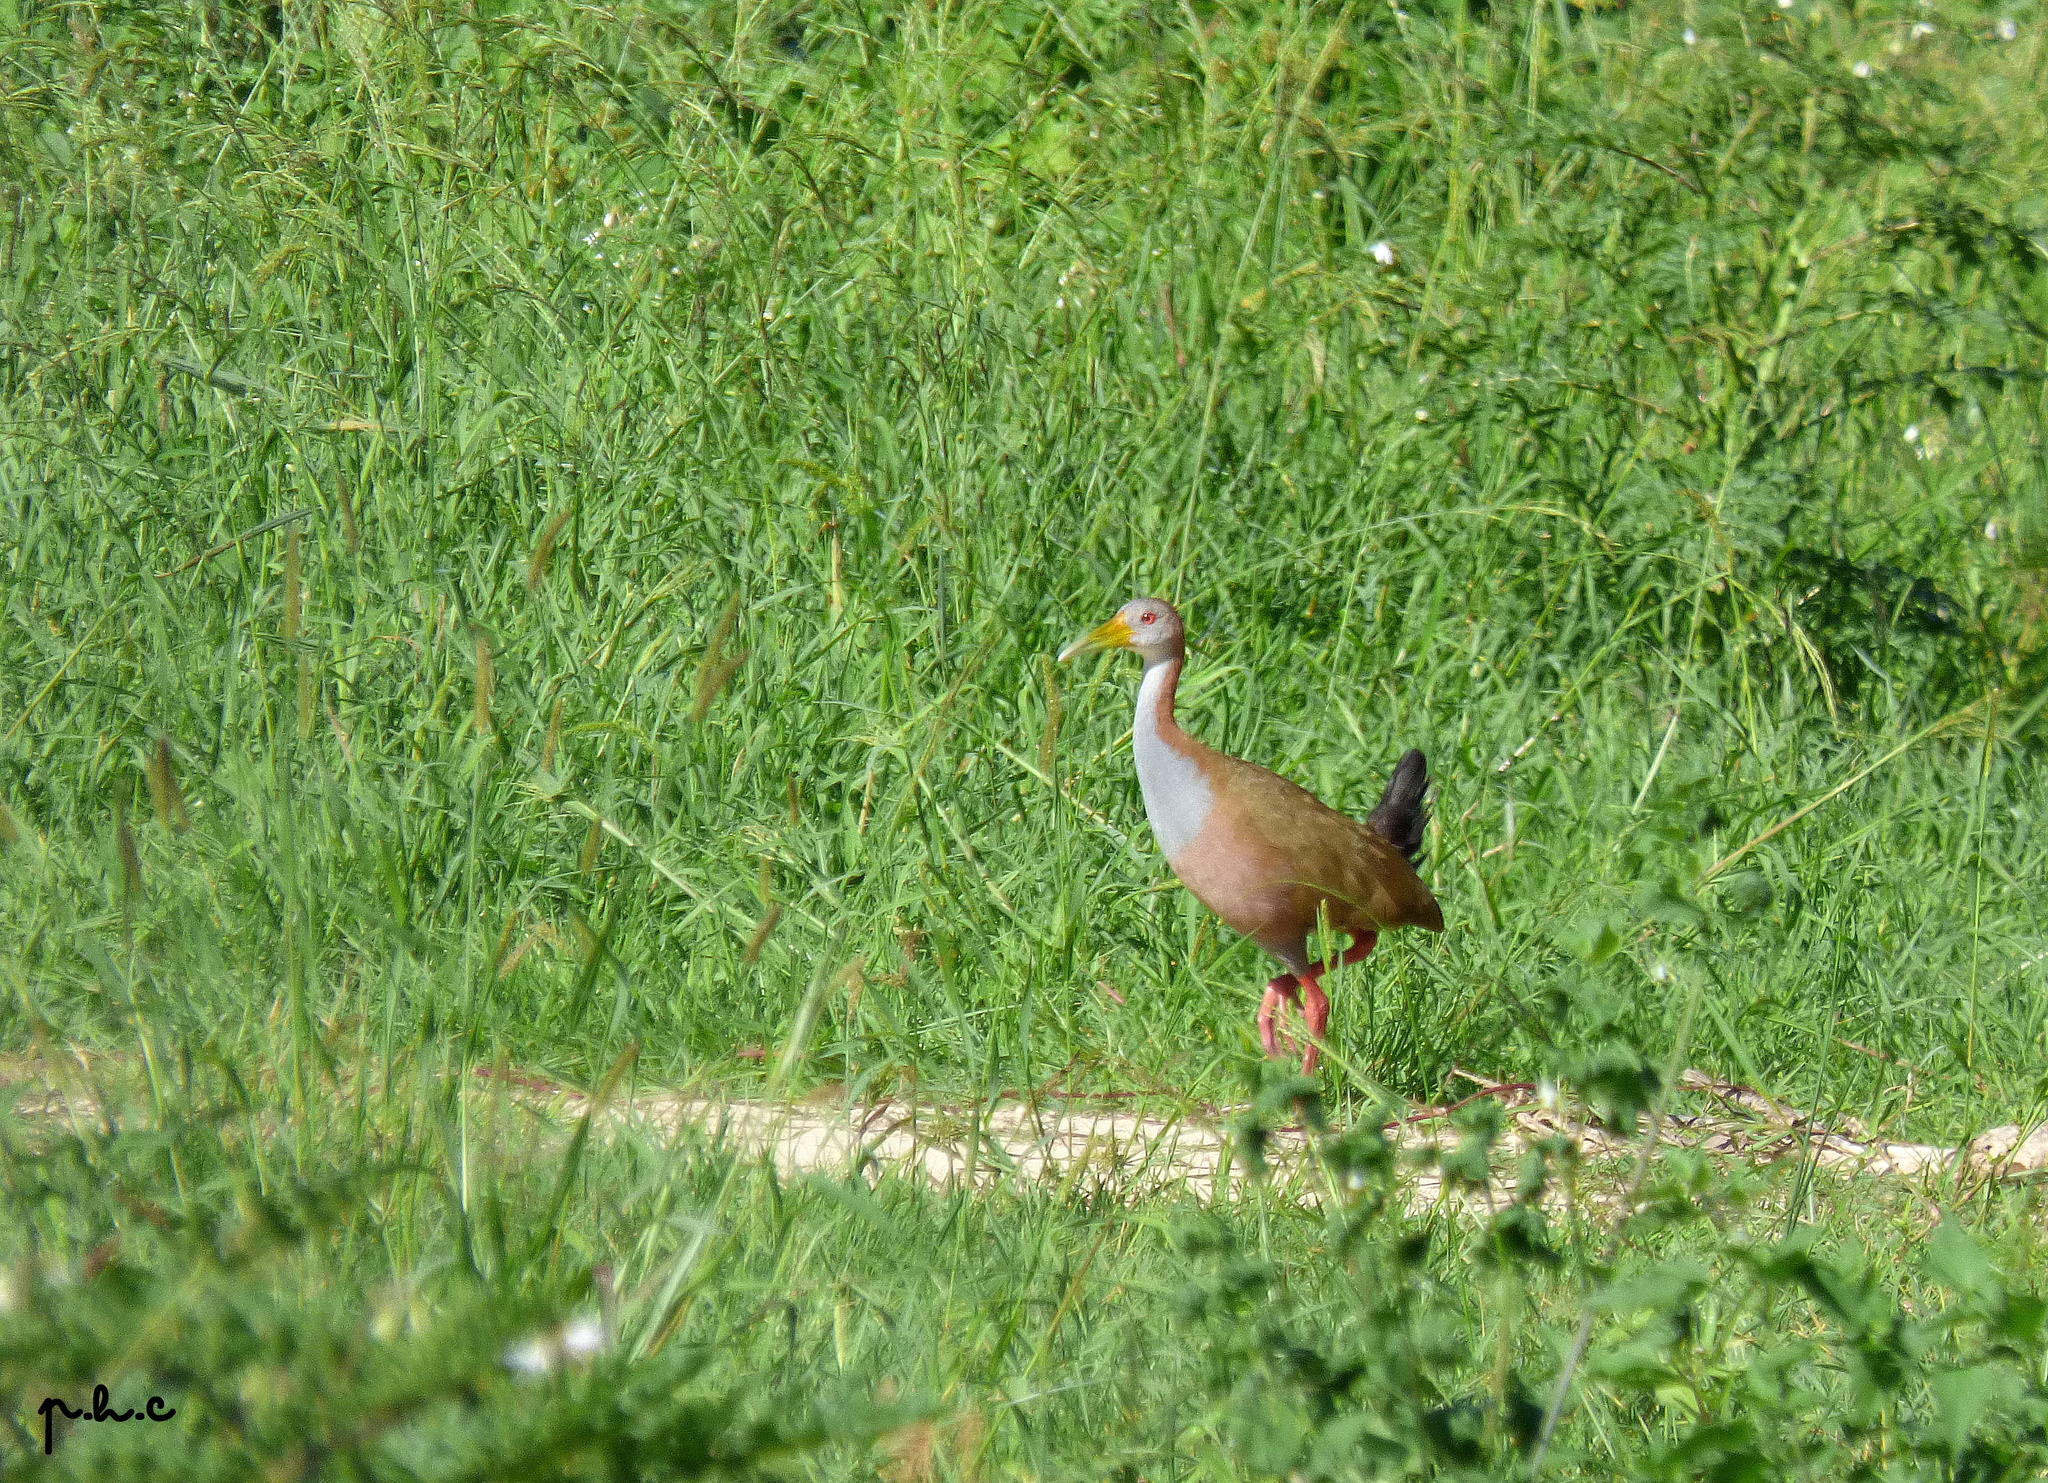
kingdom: Animalia
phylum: Chordata
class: Aves
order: Gruiformes
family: Rallidae
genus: Aramides
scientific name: Aramides ypecaha
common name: Giant wood rail
